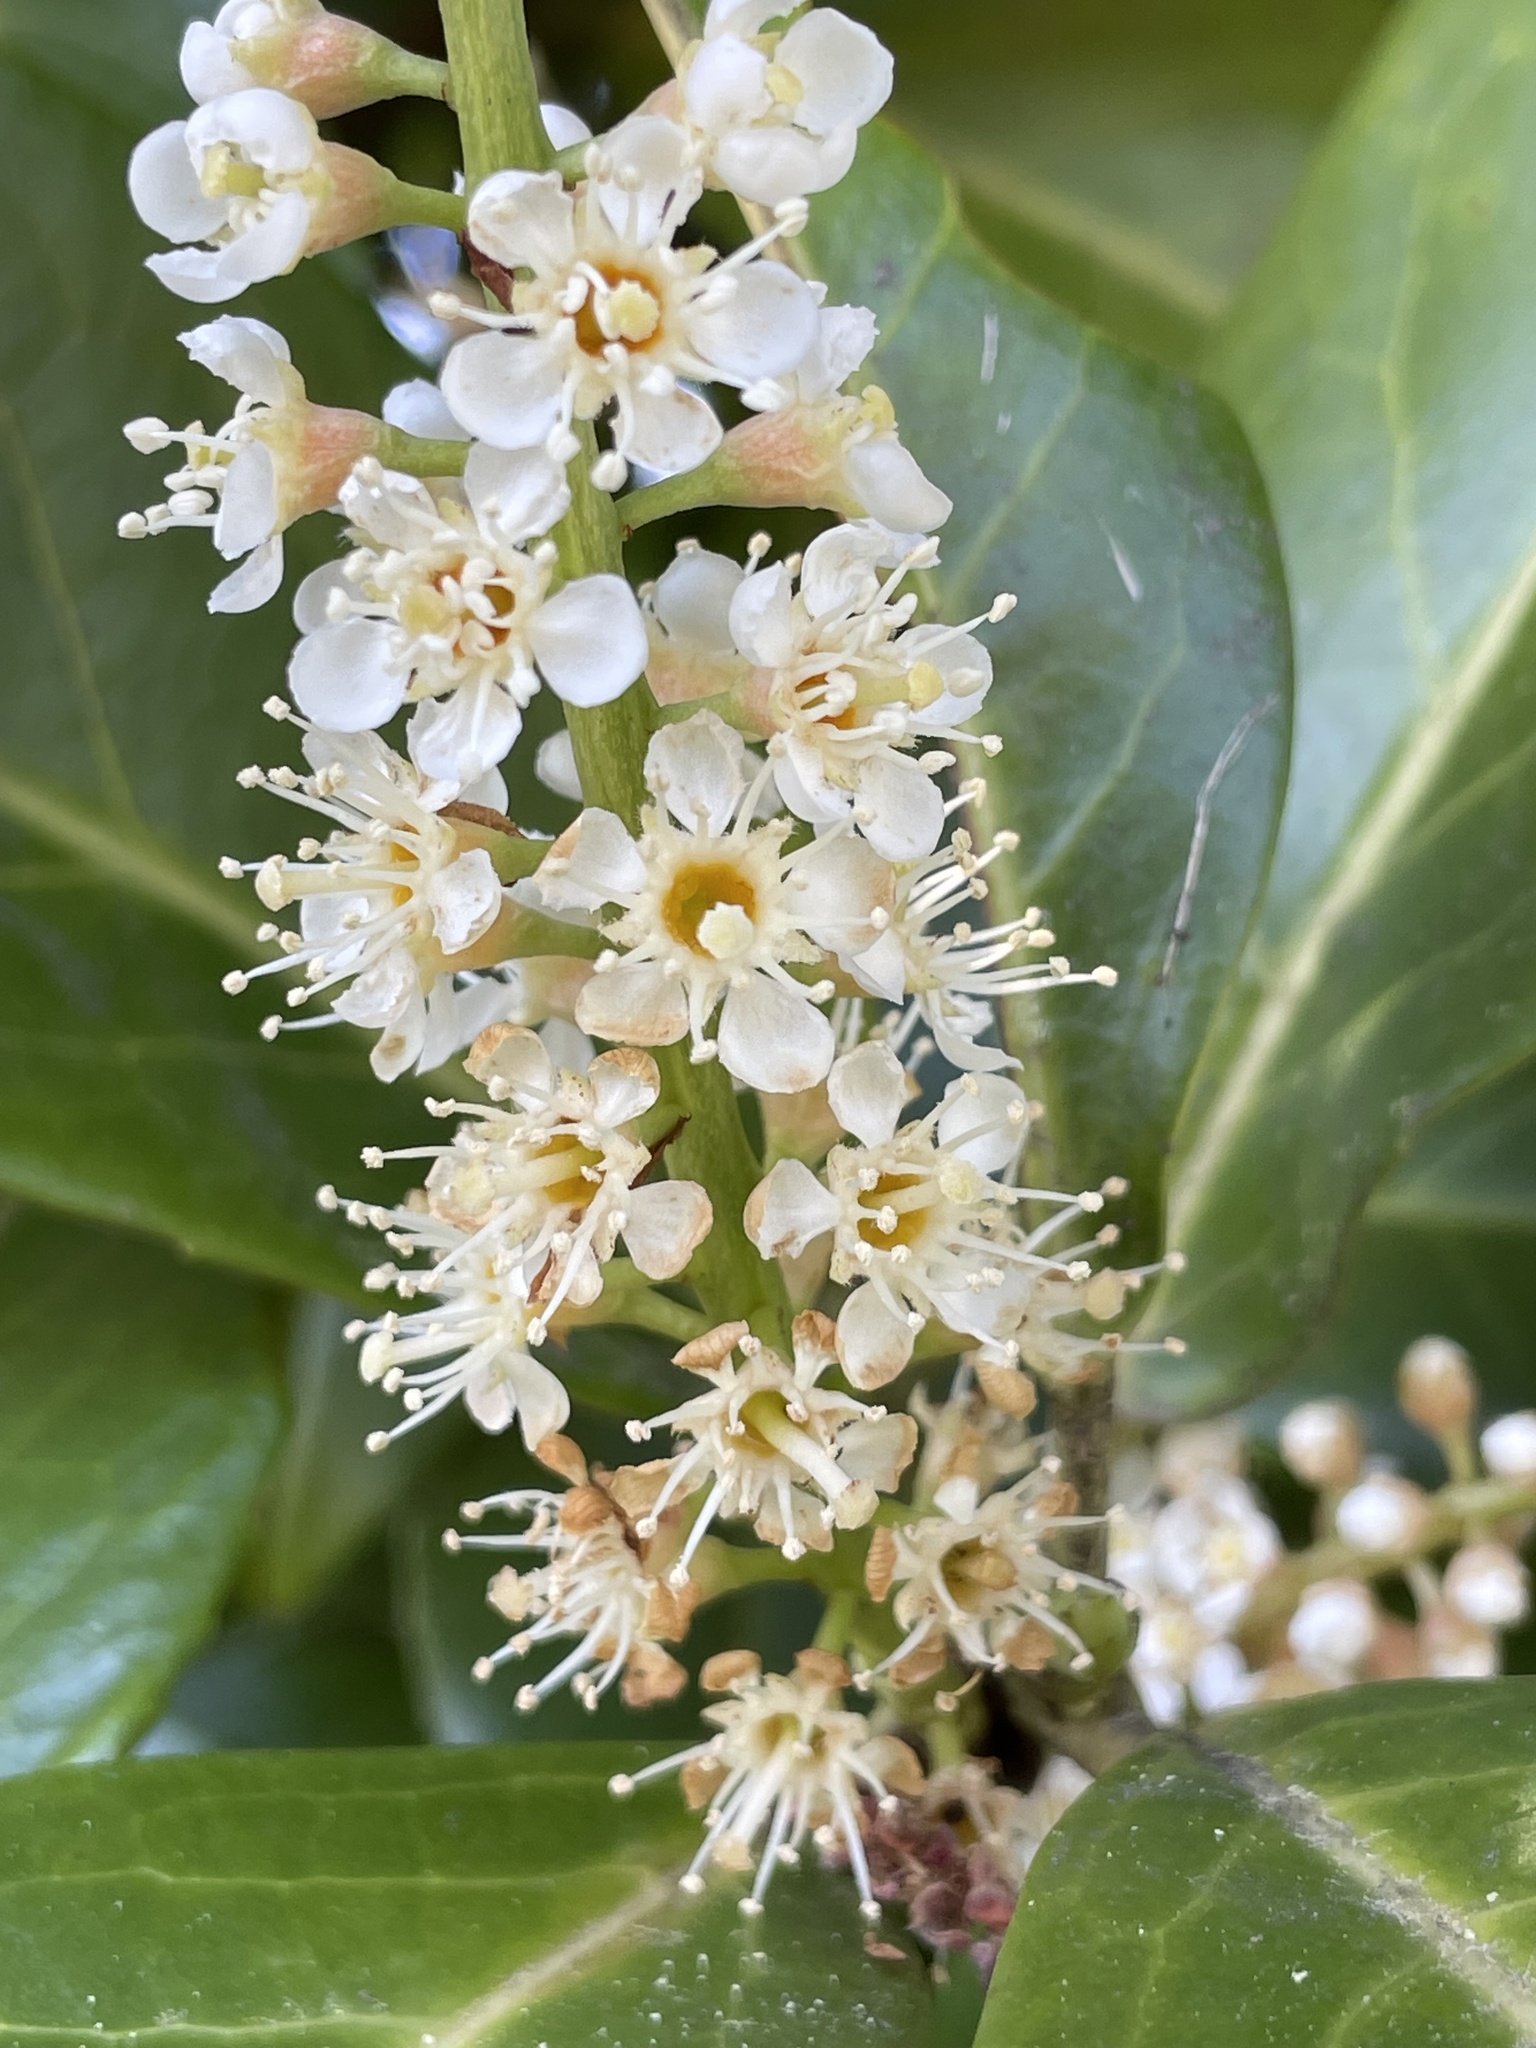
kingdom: Plantae
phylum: Tracheophyta
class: Magnoliopsida
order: Rosales
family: Rosaceae
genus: Prunus
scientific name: Prunus laurocerasus
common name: Cherry laurel
